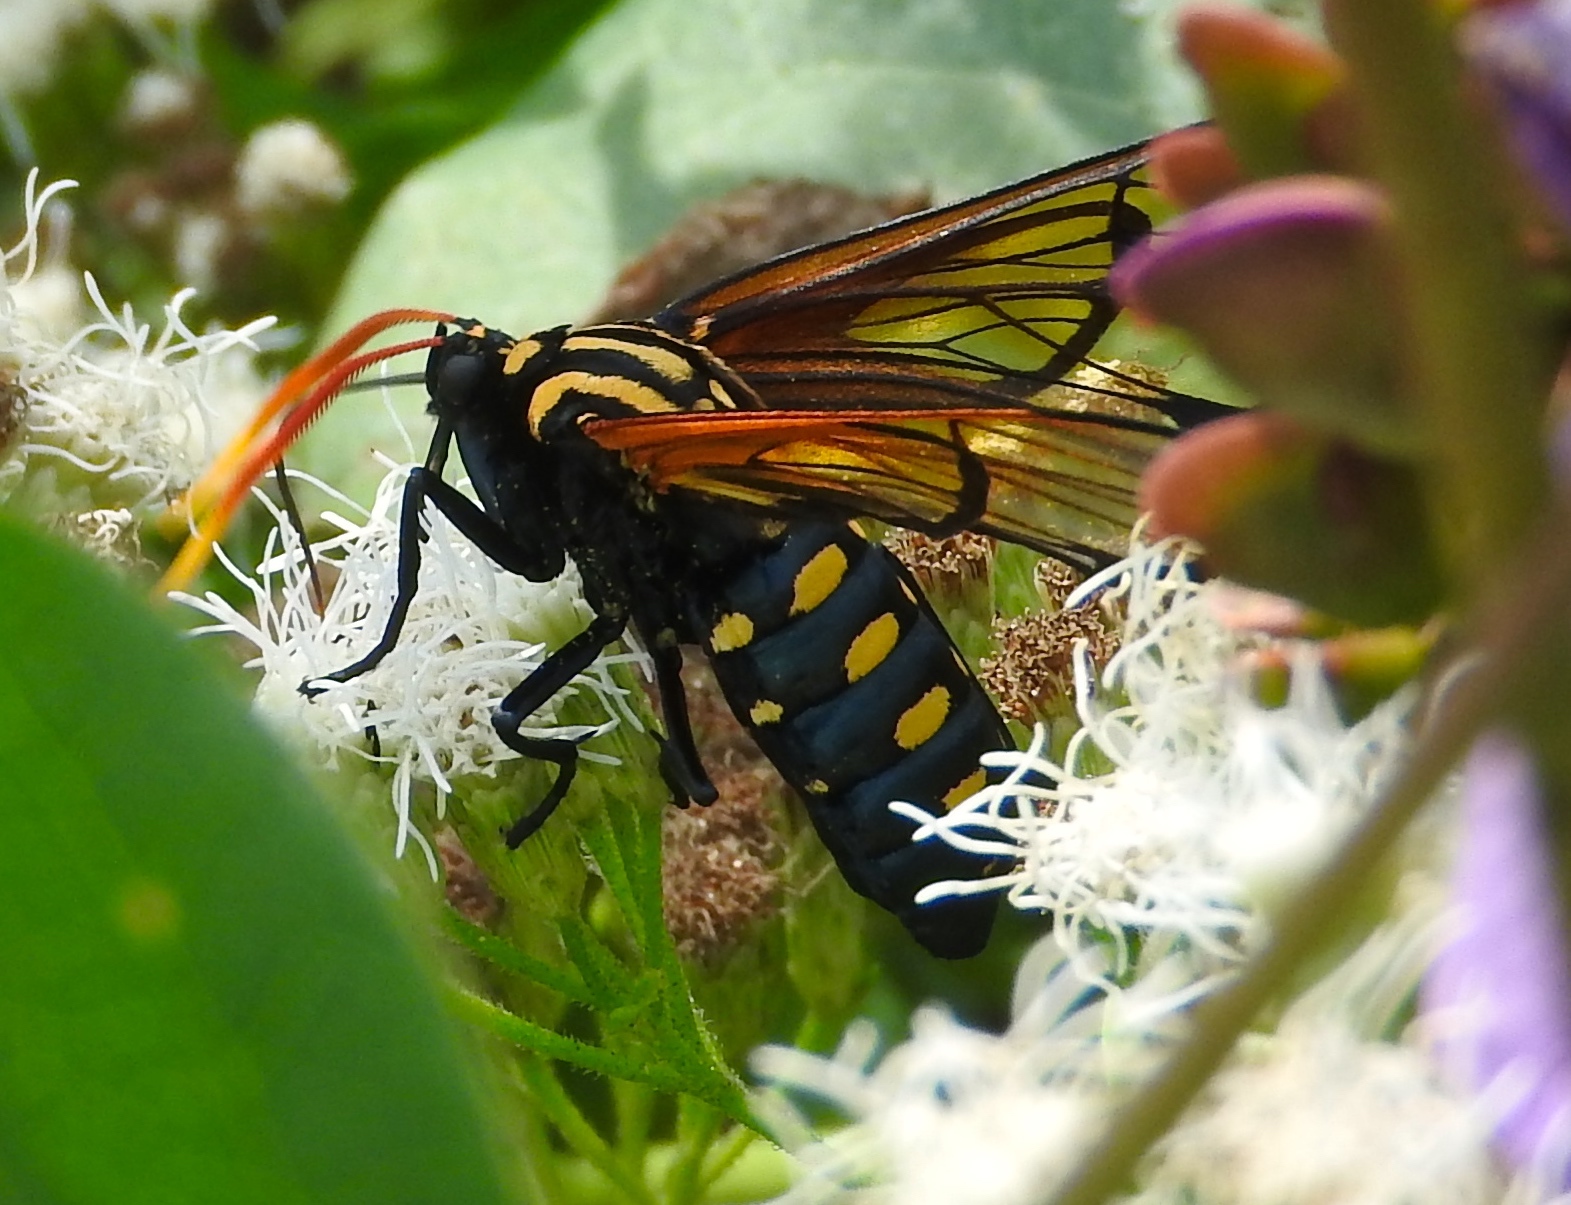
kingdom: Animalia
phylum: Arthropoda
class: Insecta
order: Lepidoptera
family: Erebidae
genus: Isanthrene
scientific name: Isanthrene perboscii
